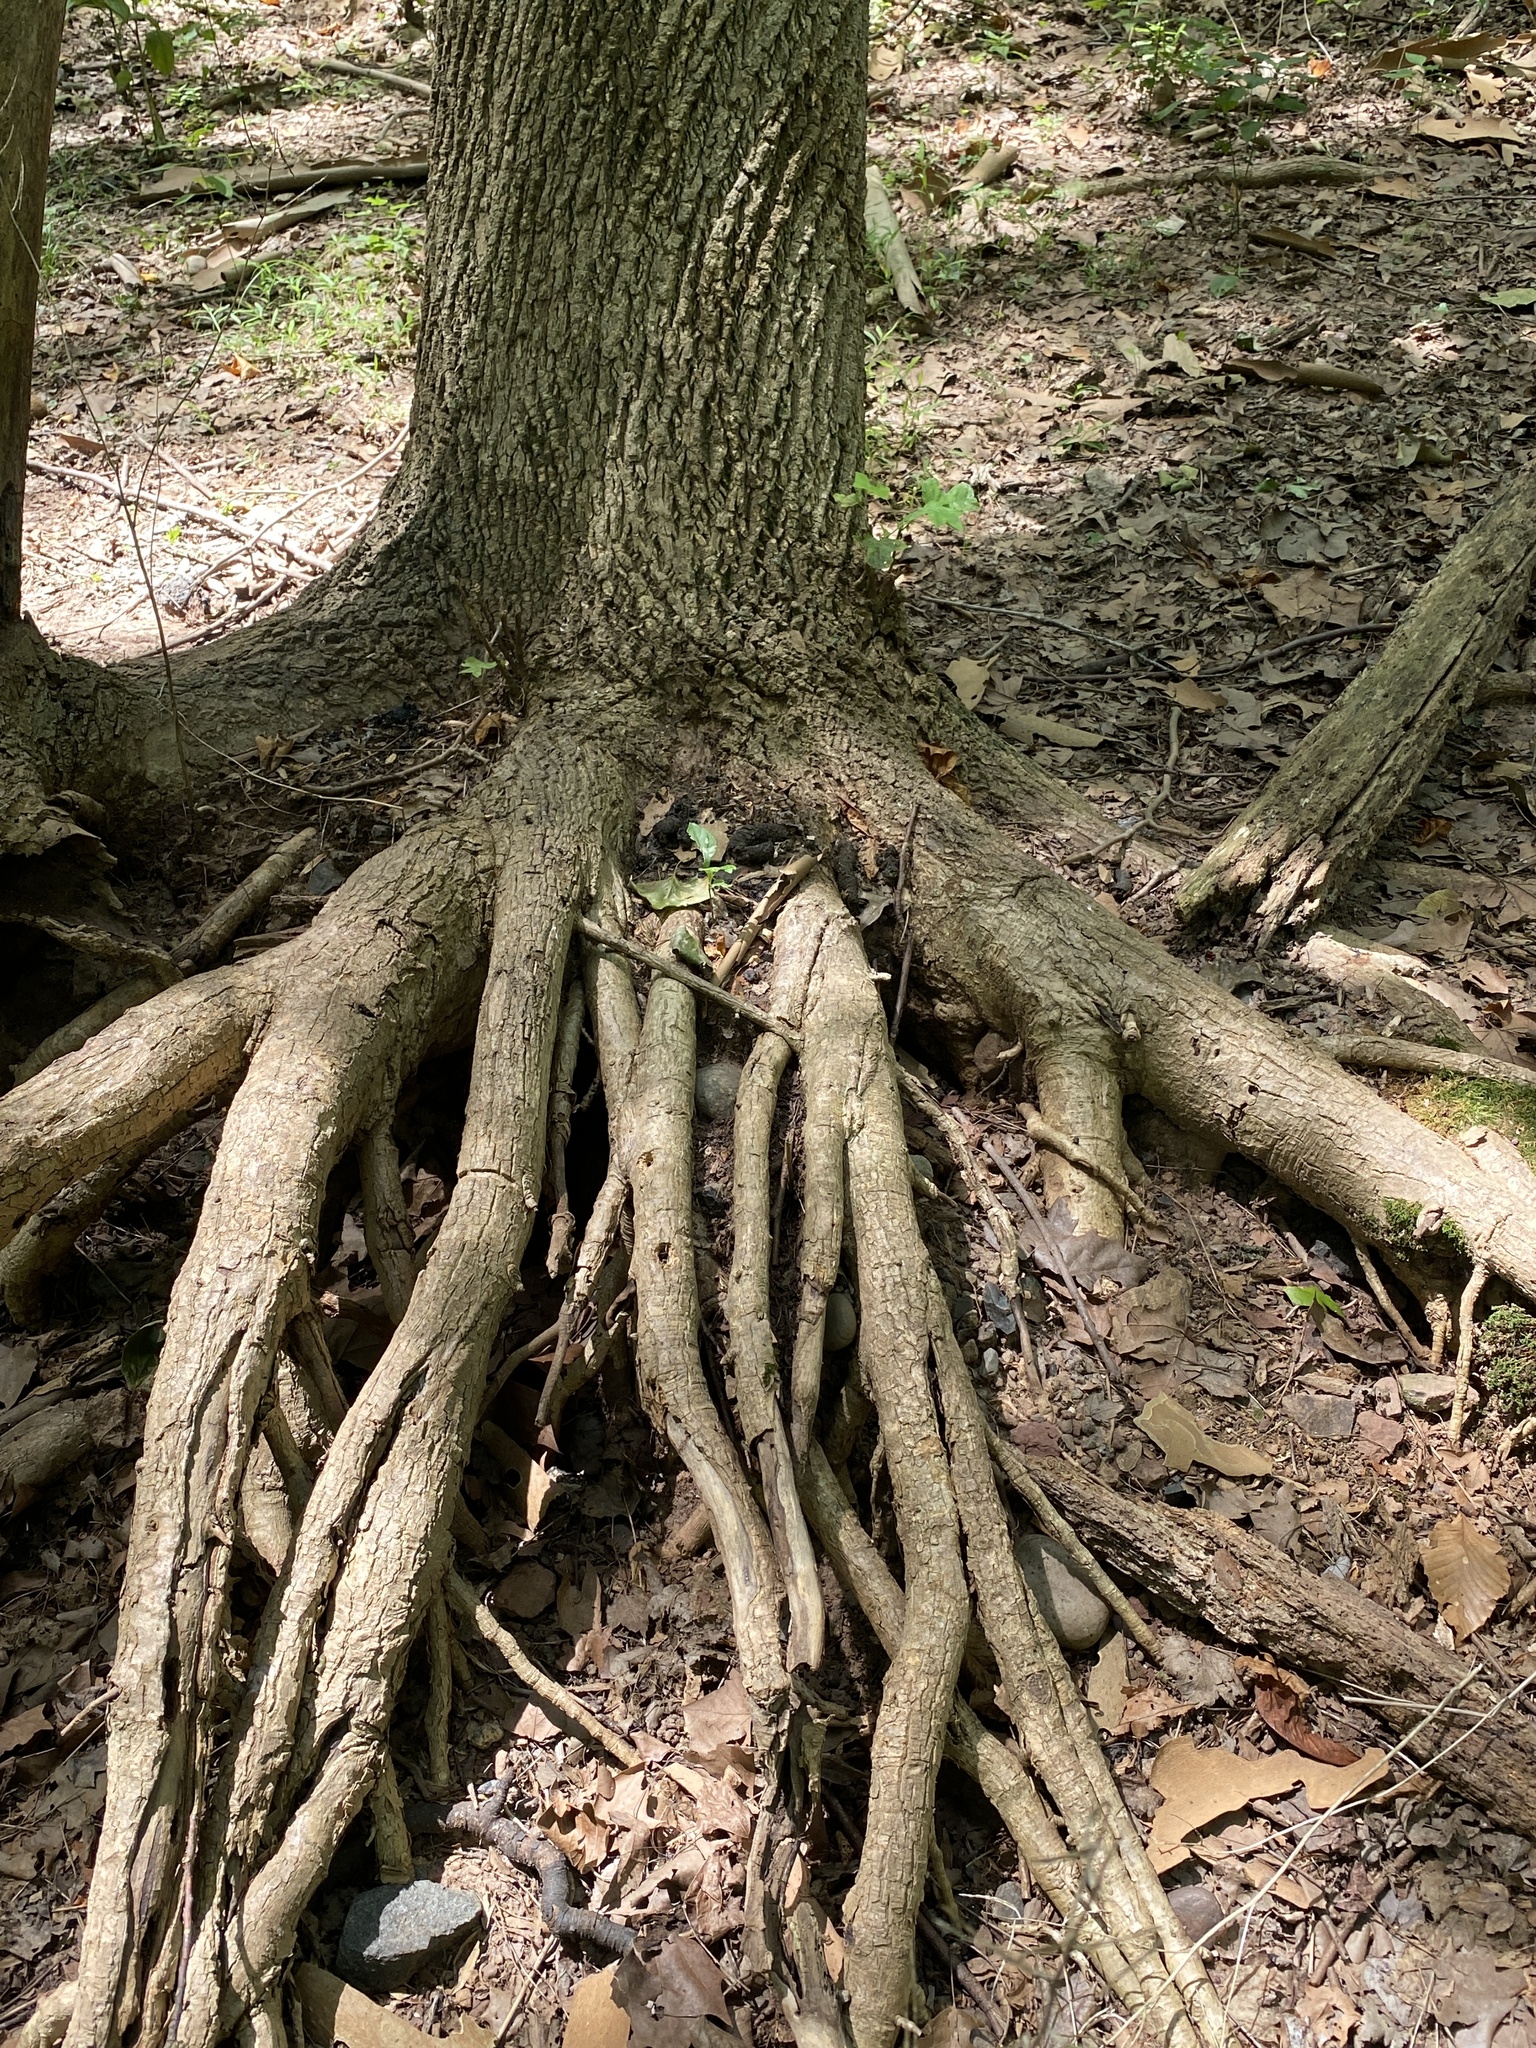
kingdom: Plantae
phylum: Tracheophyta
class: Magnoliopsida
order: Magnoliales
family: Magnoliaceae
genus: Liriodendron
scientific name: Liriodendron tulipifera
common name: Tulip tree
